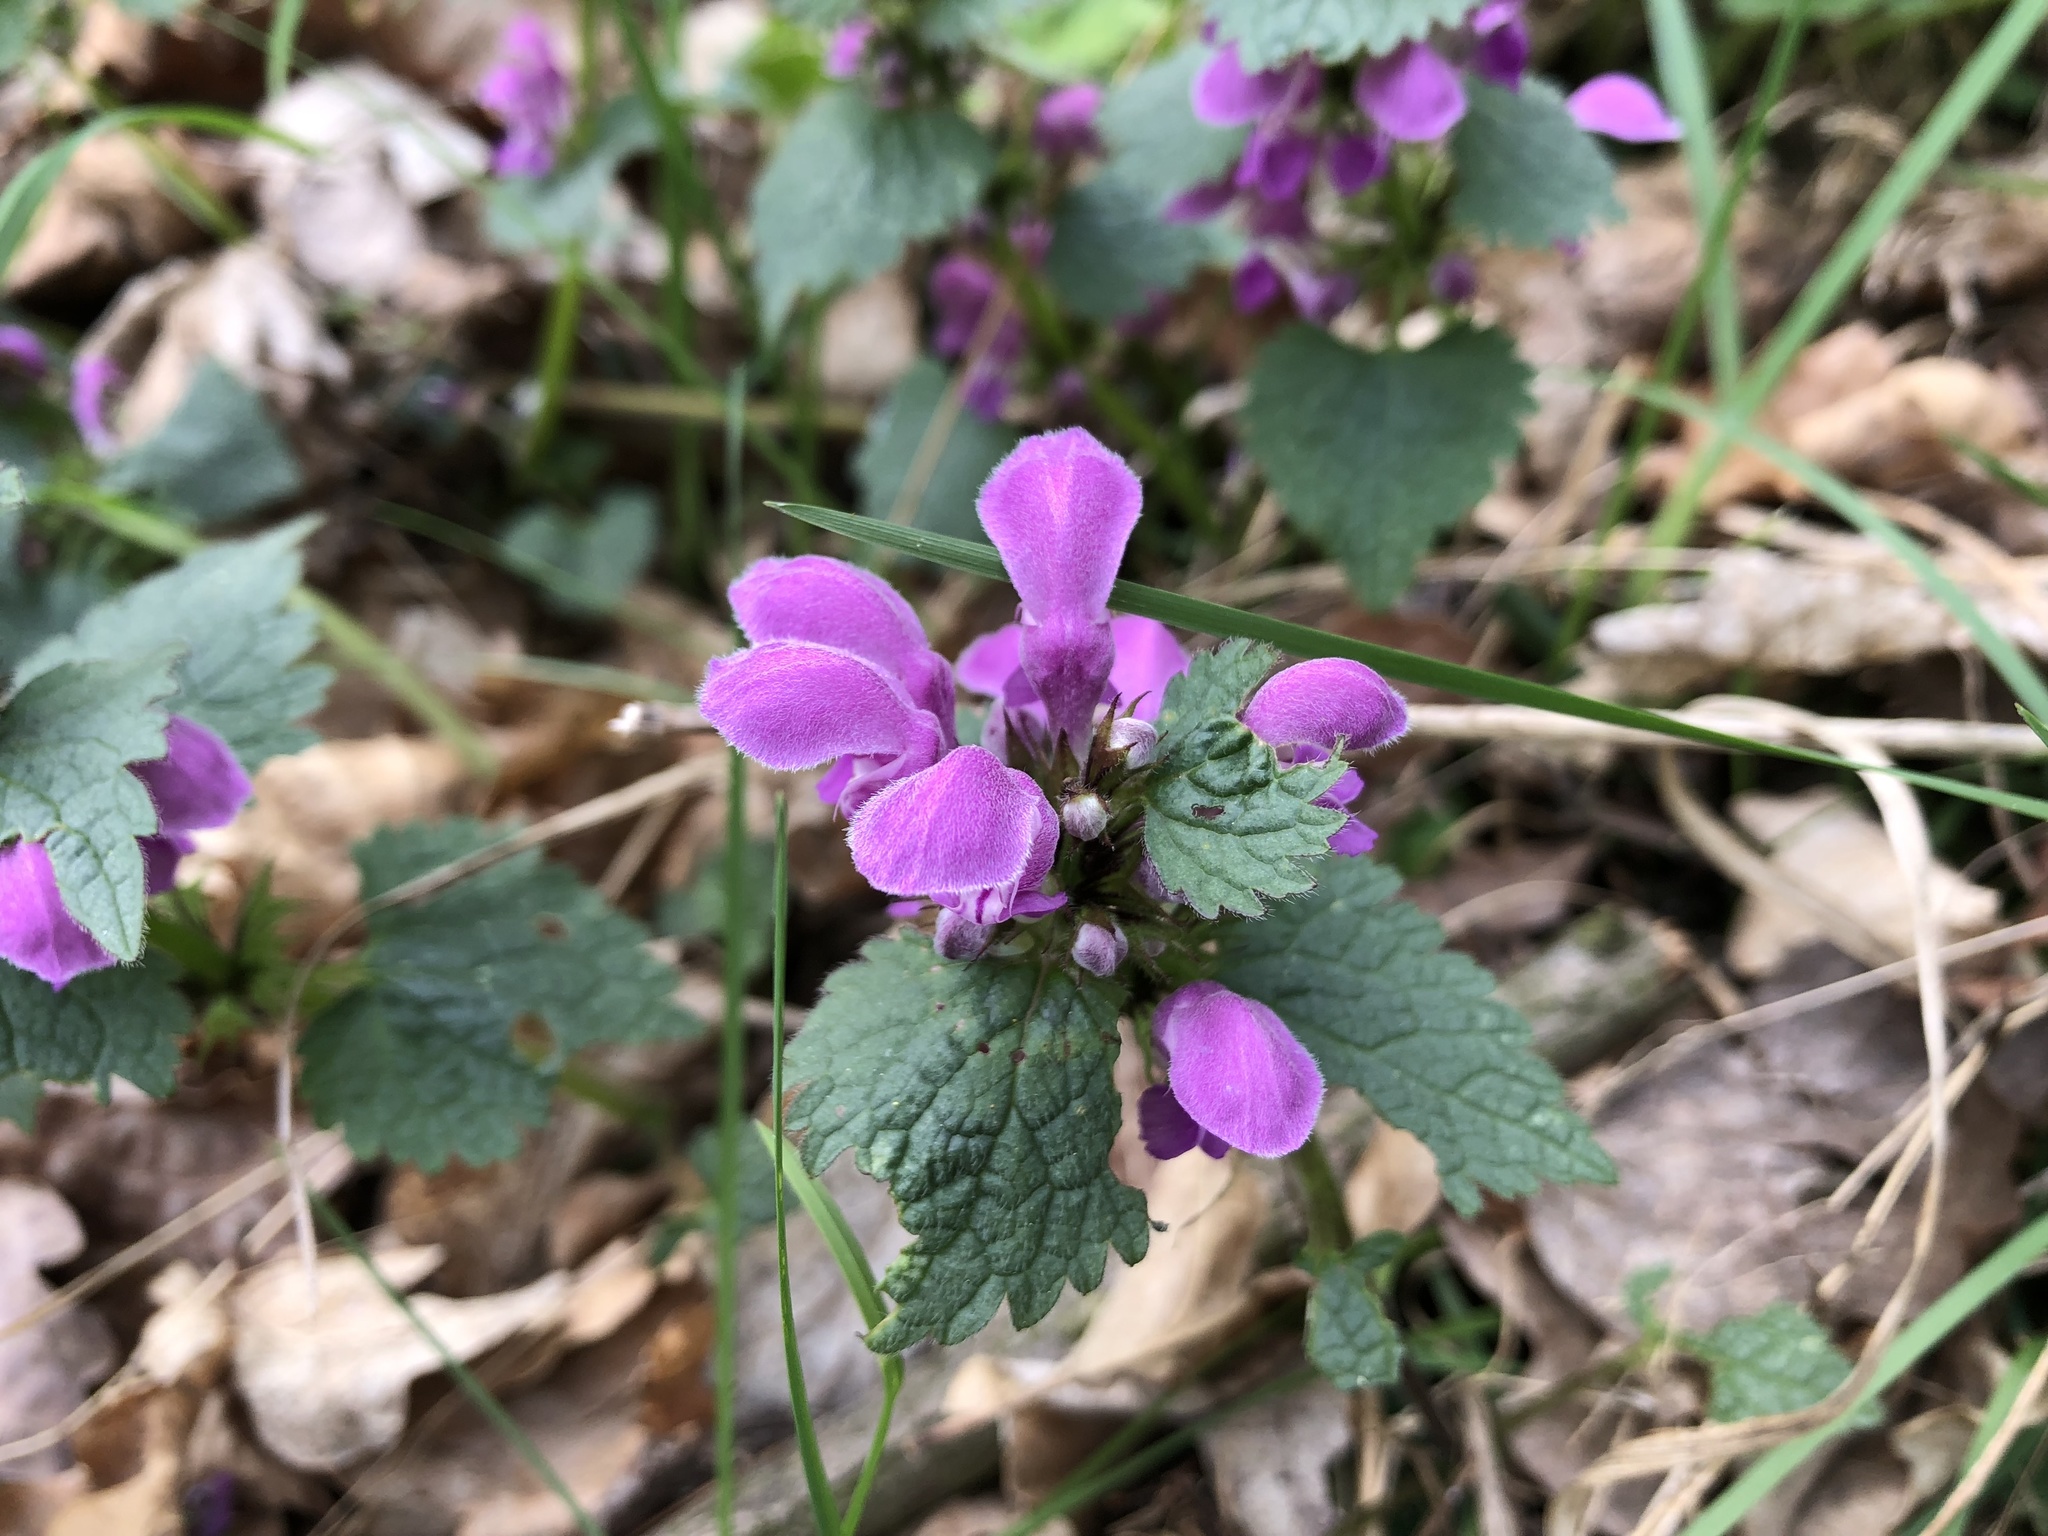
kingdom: Plantae
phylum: Tracheophyta
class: Magnoliopsida
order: Lamiales
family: Lamiaceae
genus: Lamium
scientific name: Lamium maculatum
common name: Spotted dead-nettle
